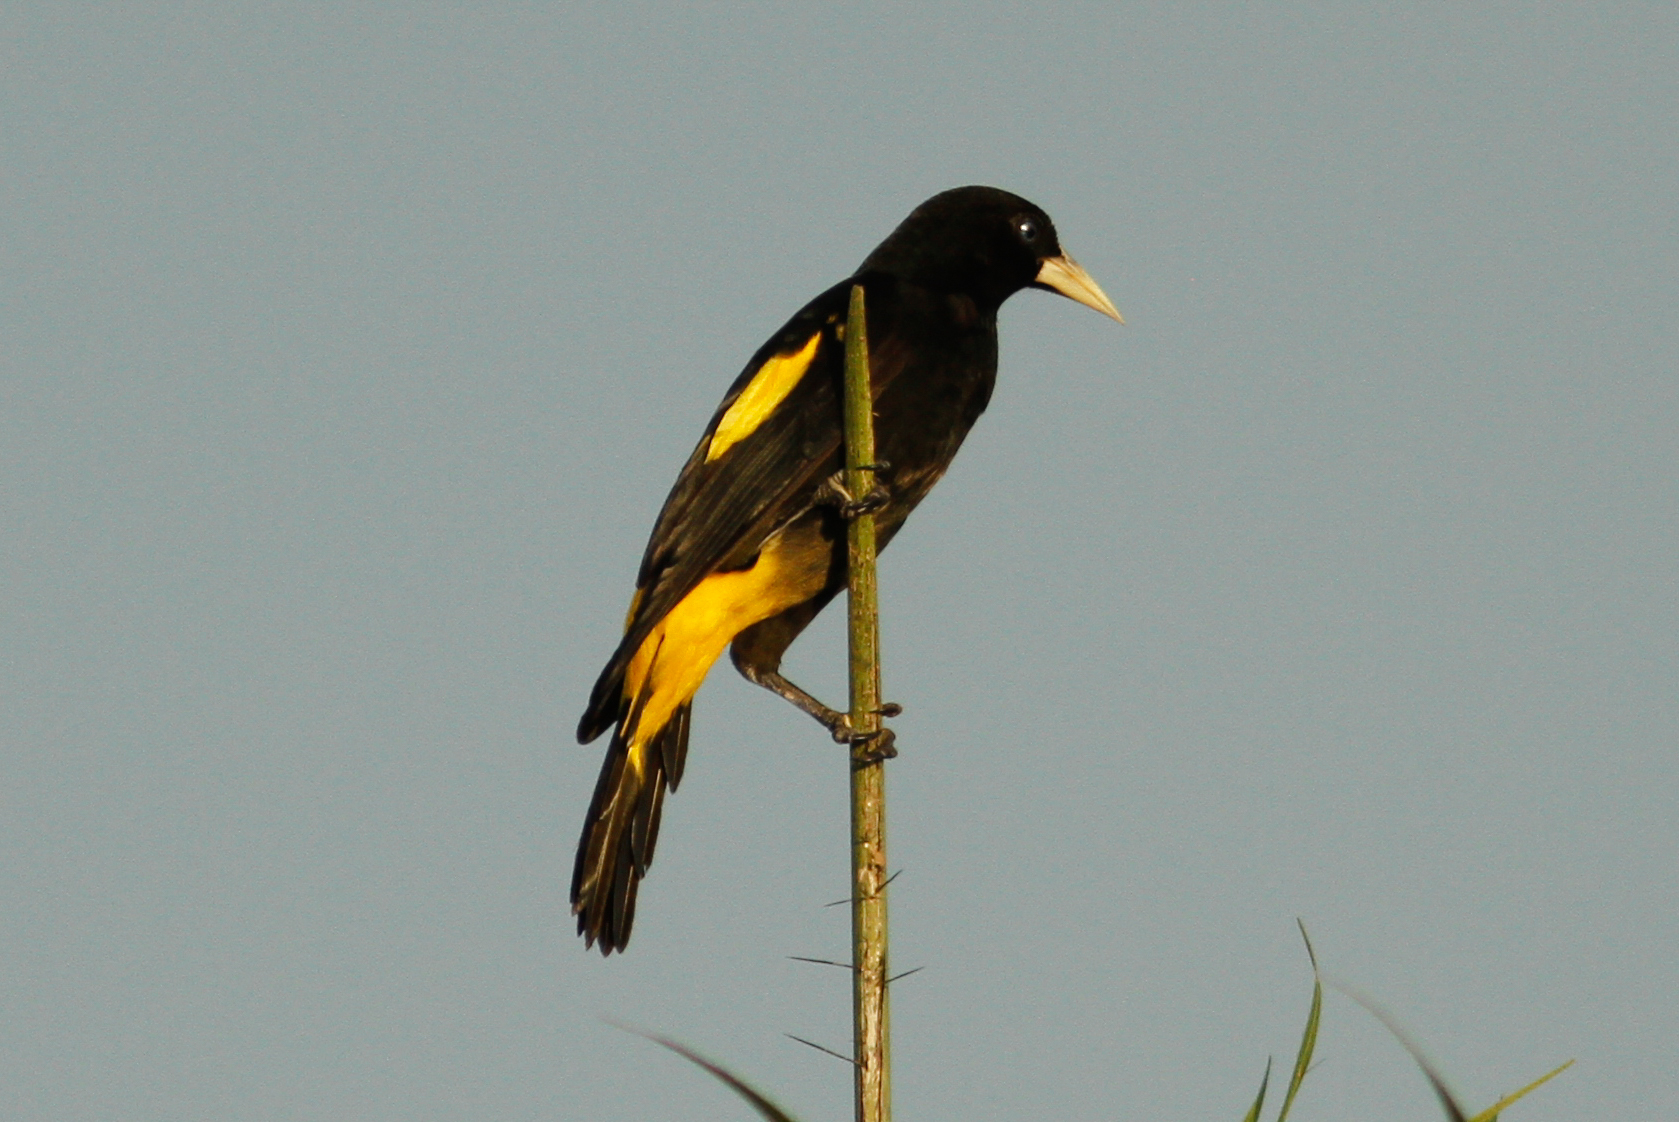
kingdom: Animalia
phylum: Chordata
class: Aves
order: Passeriformes
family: Icteridae
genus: Cacicus
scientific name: Cacicus cela
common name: Yellow-rumped cacique
